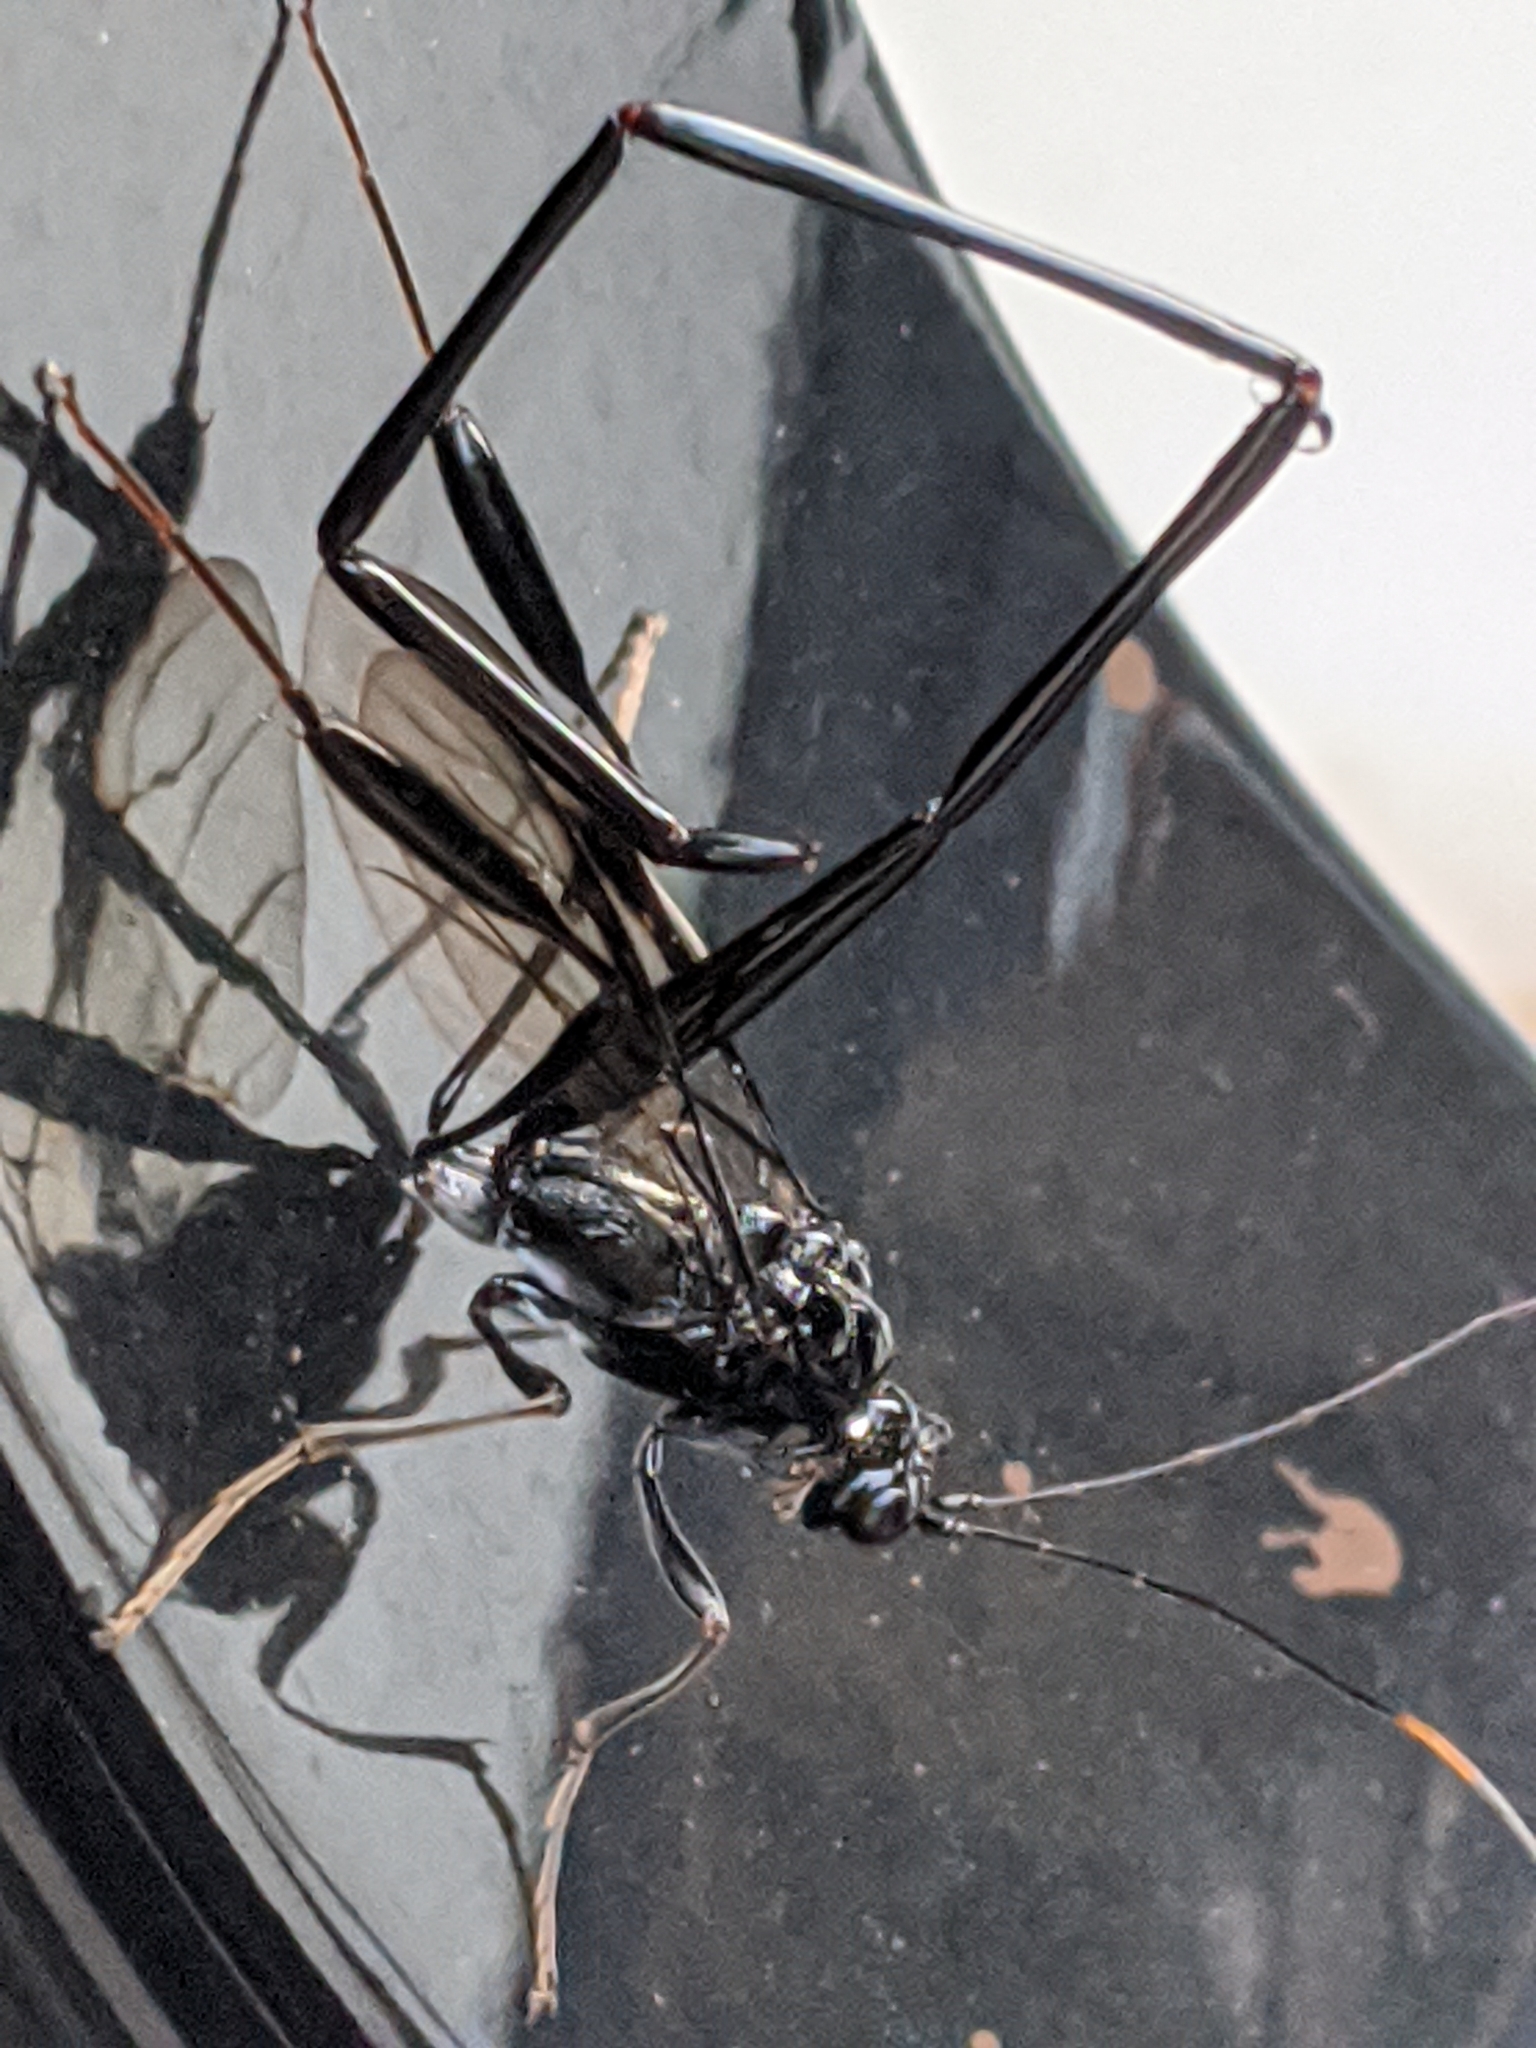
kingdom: Animalia
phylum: Arthropoda
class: Insecta
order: Hymenoptera
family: Pelecinidae
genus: Pelecinus
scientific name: Pelecinus polyturator
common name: American pelecinid wasp
